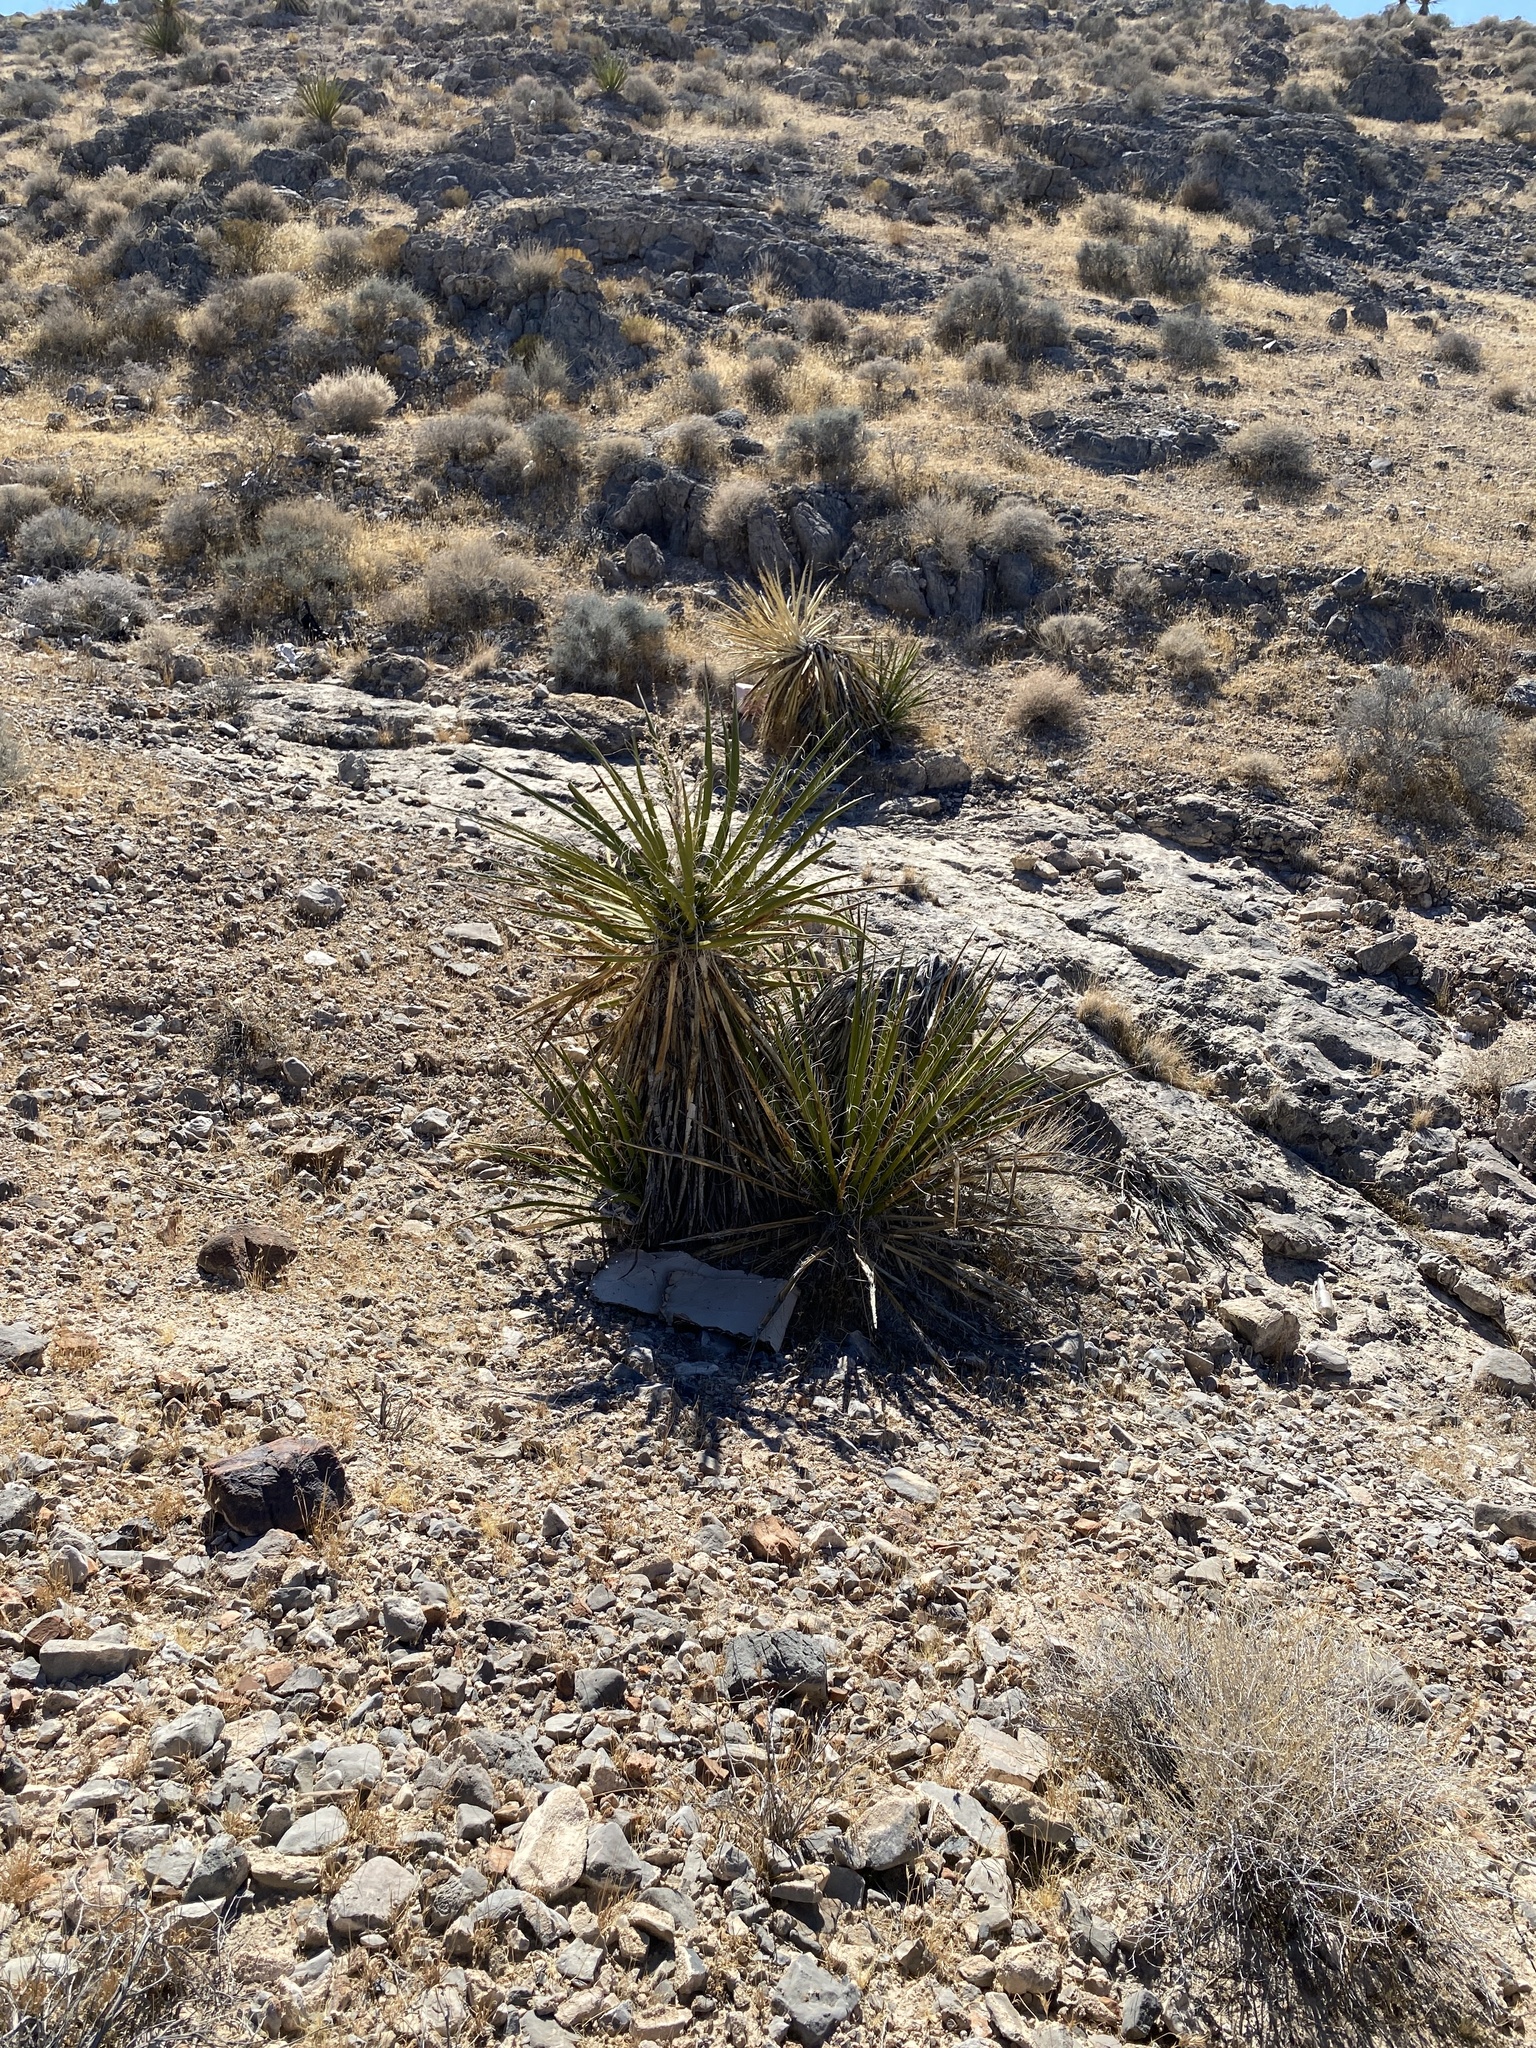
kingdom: Plantae
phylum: Tracheophyta
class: Liliopsida
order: Asparagales
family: Asparagaceae
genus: Yucca
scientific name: Yucca schidigera
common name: Mojave yucca
